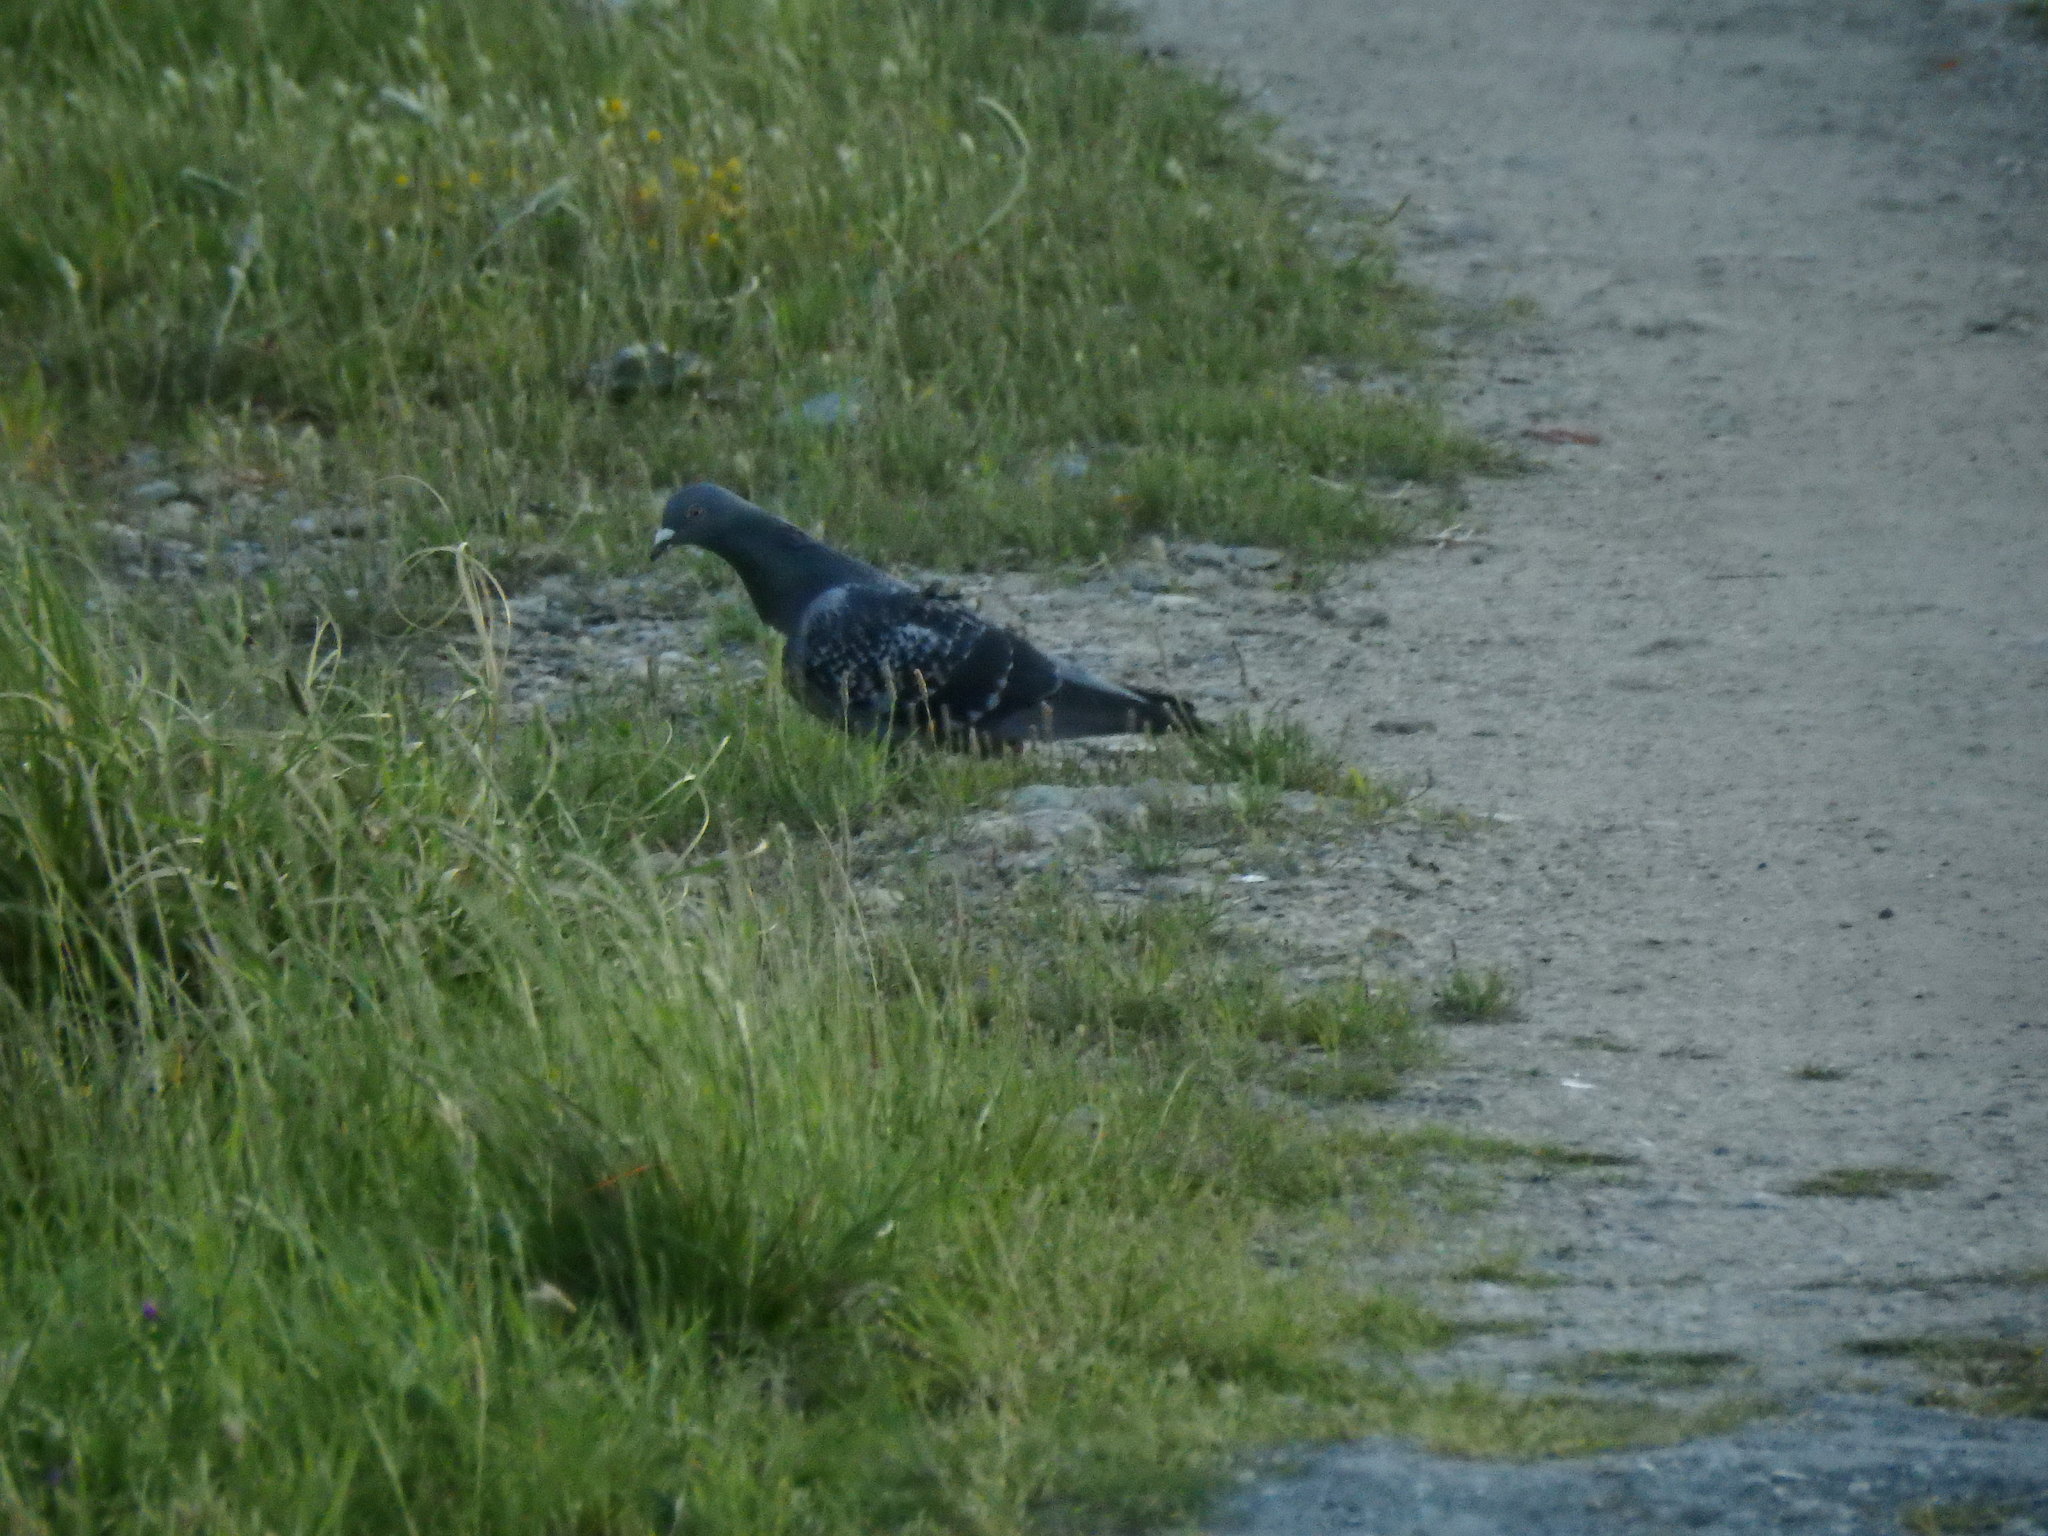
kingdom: Animalia
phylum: Chordata
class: Aves
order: Columbiformes
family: Columbidae
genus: Columba
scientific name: Columba livia
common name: Rock pigeon
